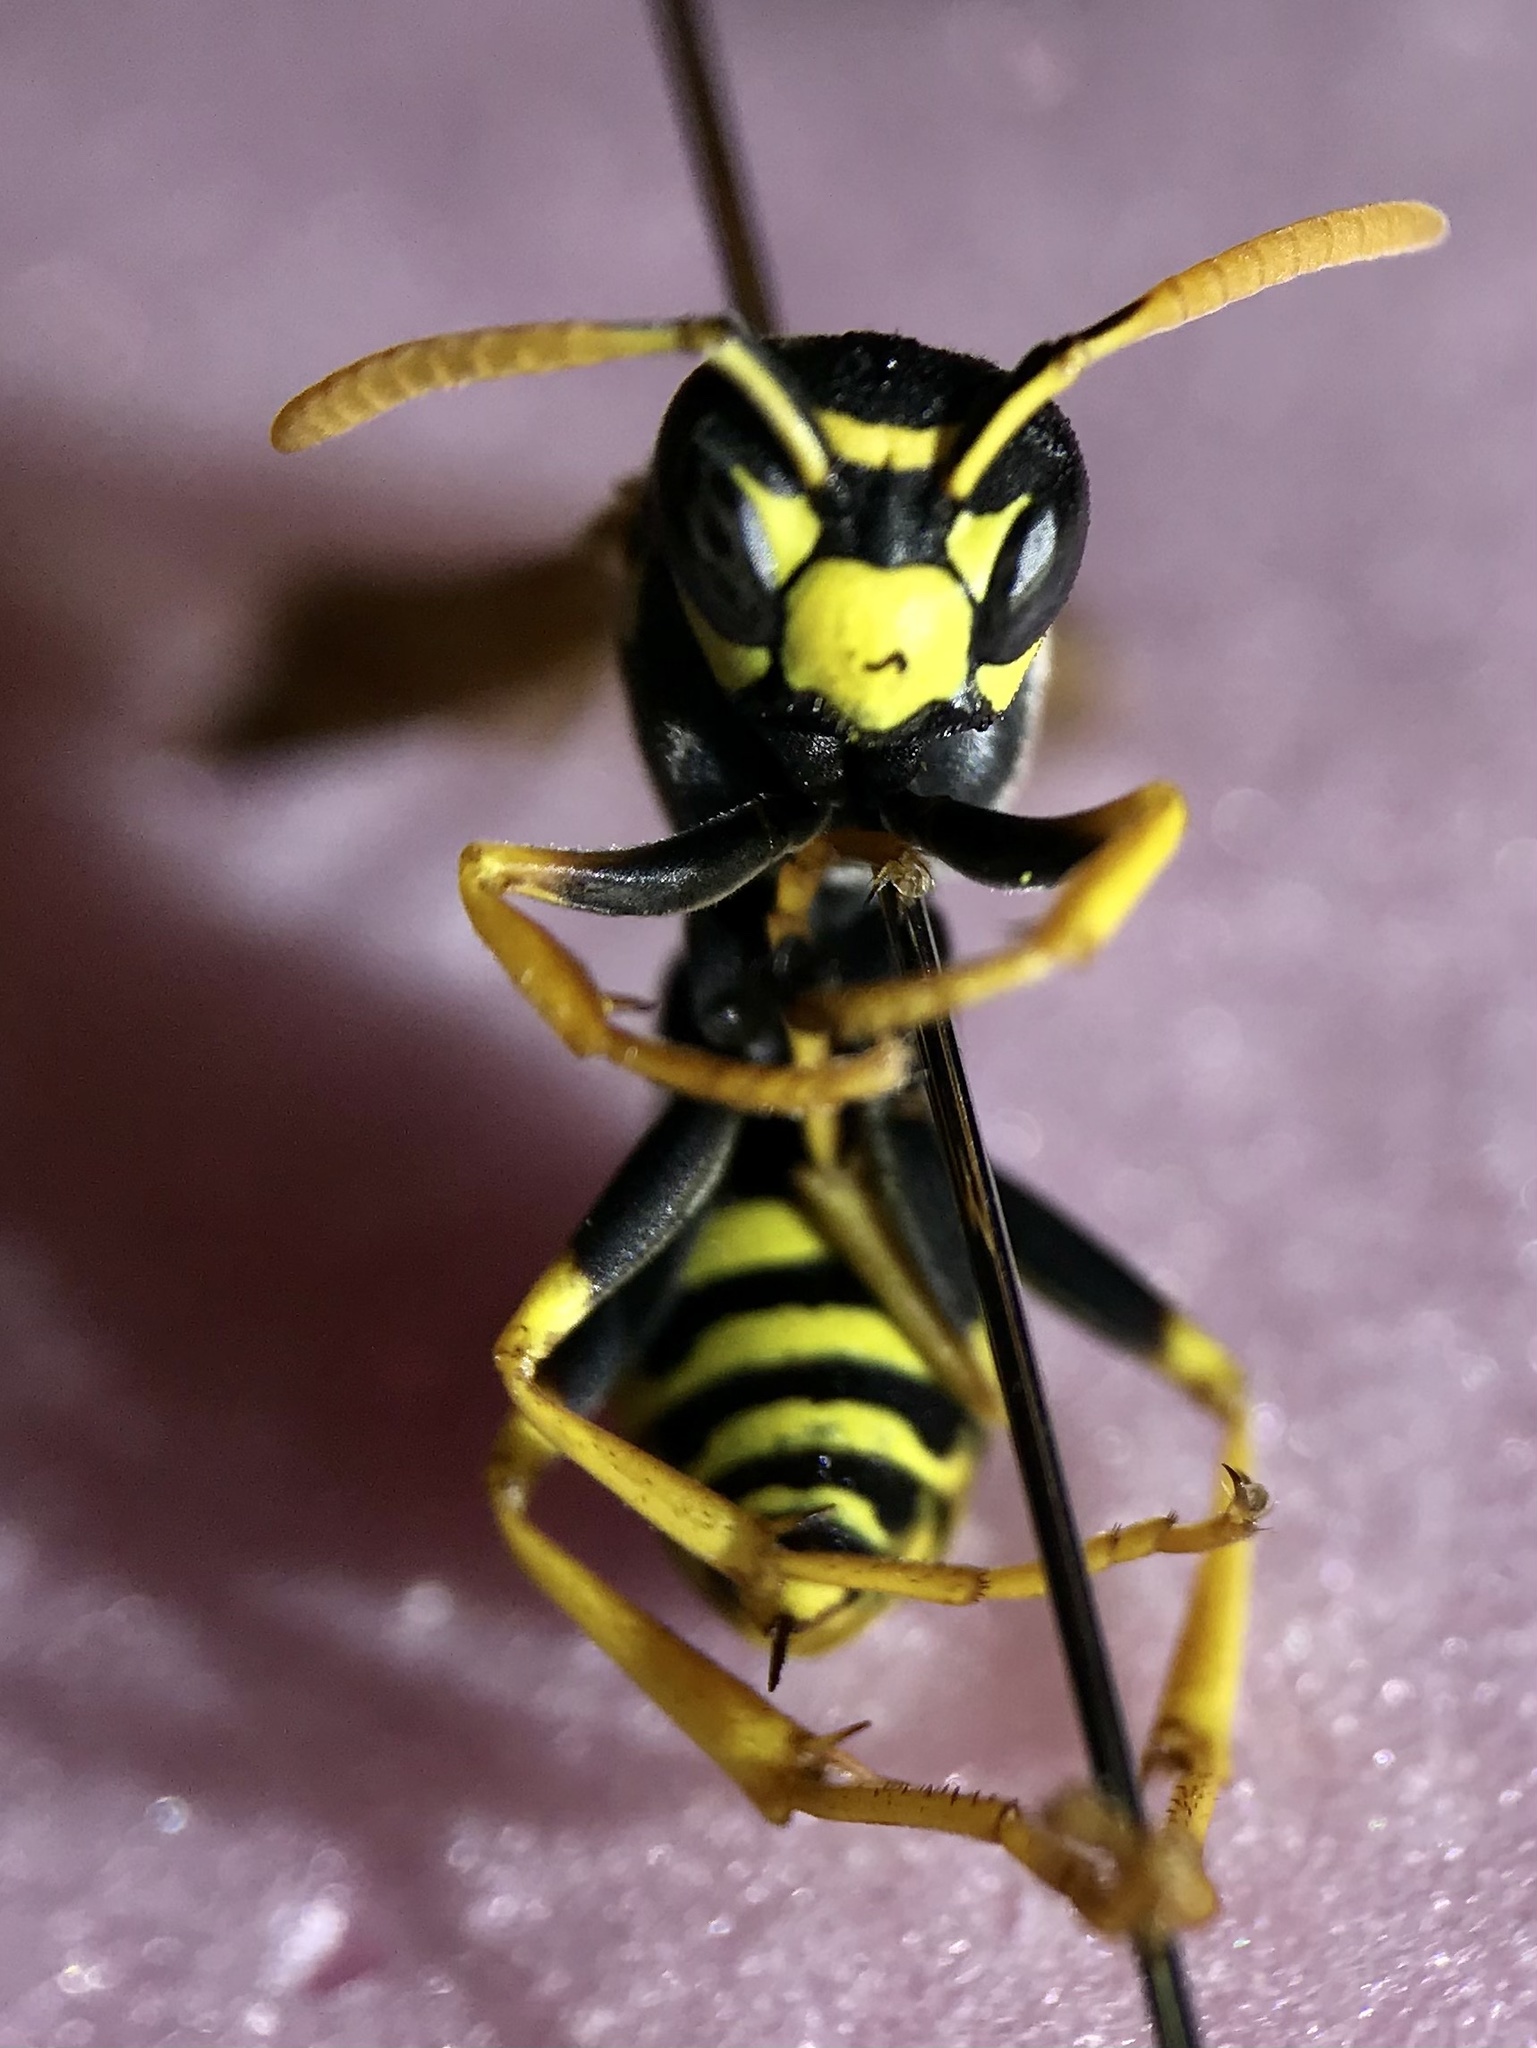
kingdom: Animalia
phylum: Arthropoda
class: Insecta
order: Hymenoptera
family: Eumenidae
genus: Polistes
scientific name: Polistes dominula
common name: Paper wasp
